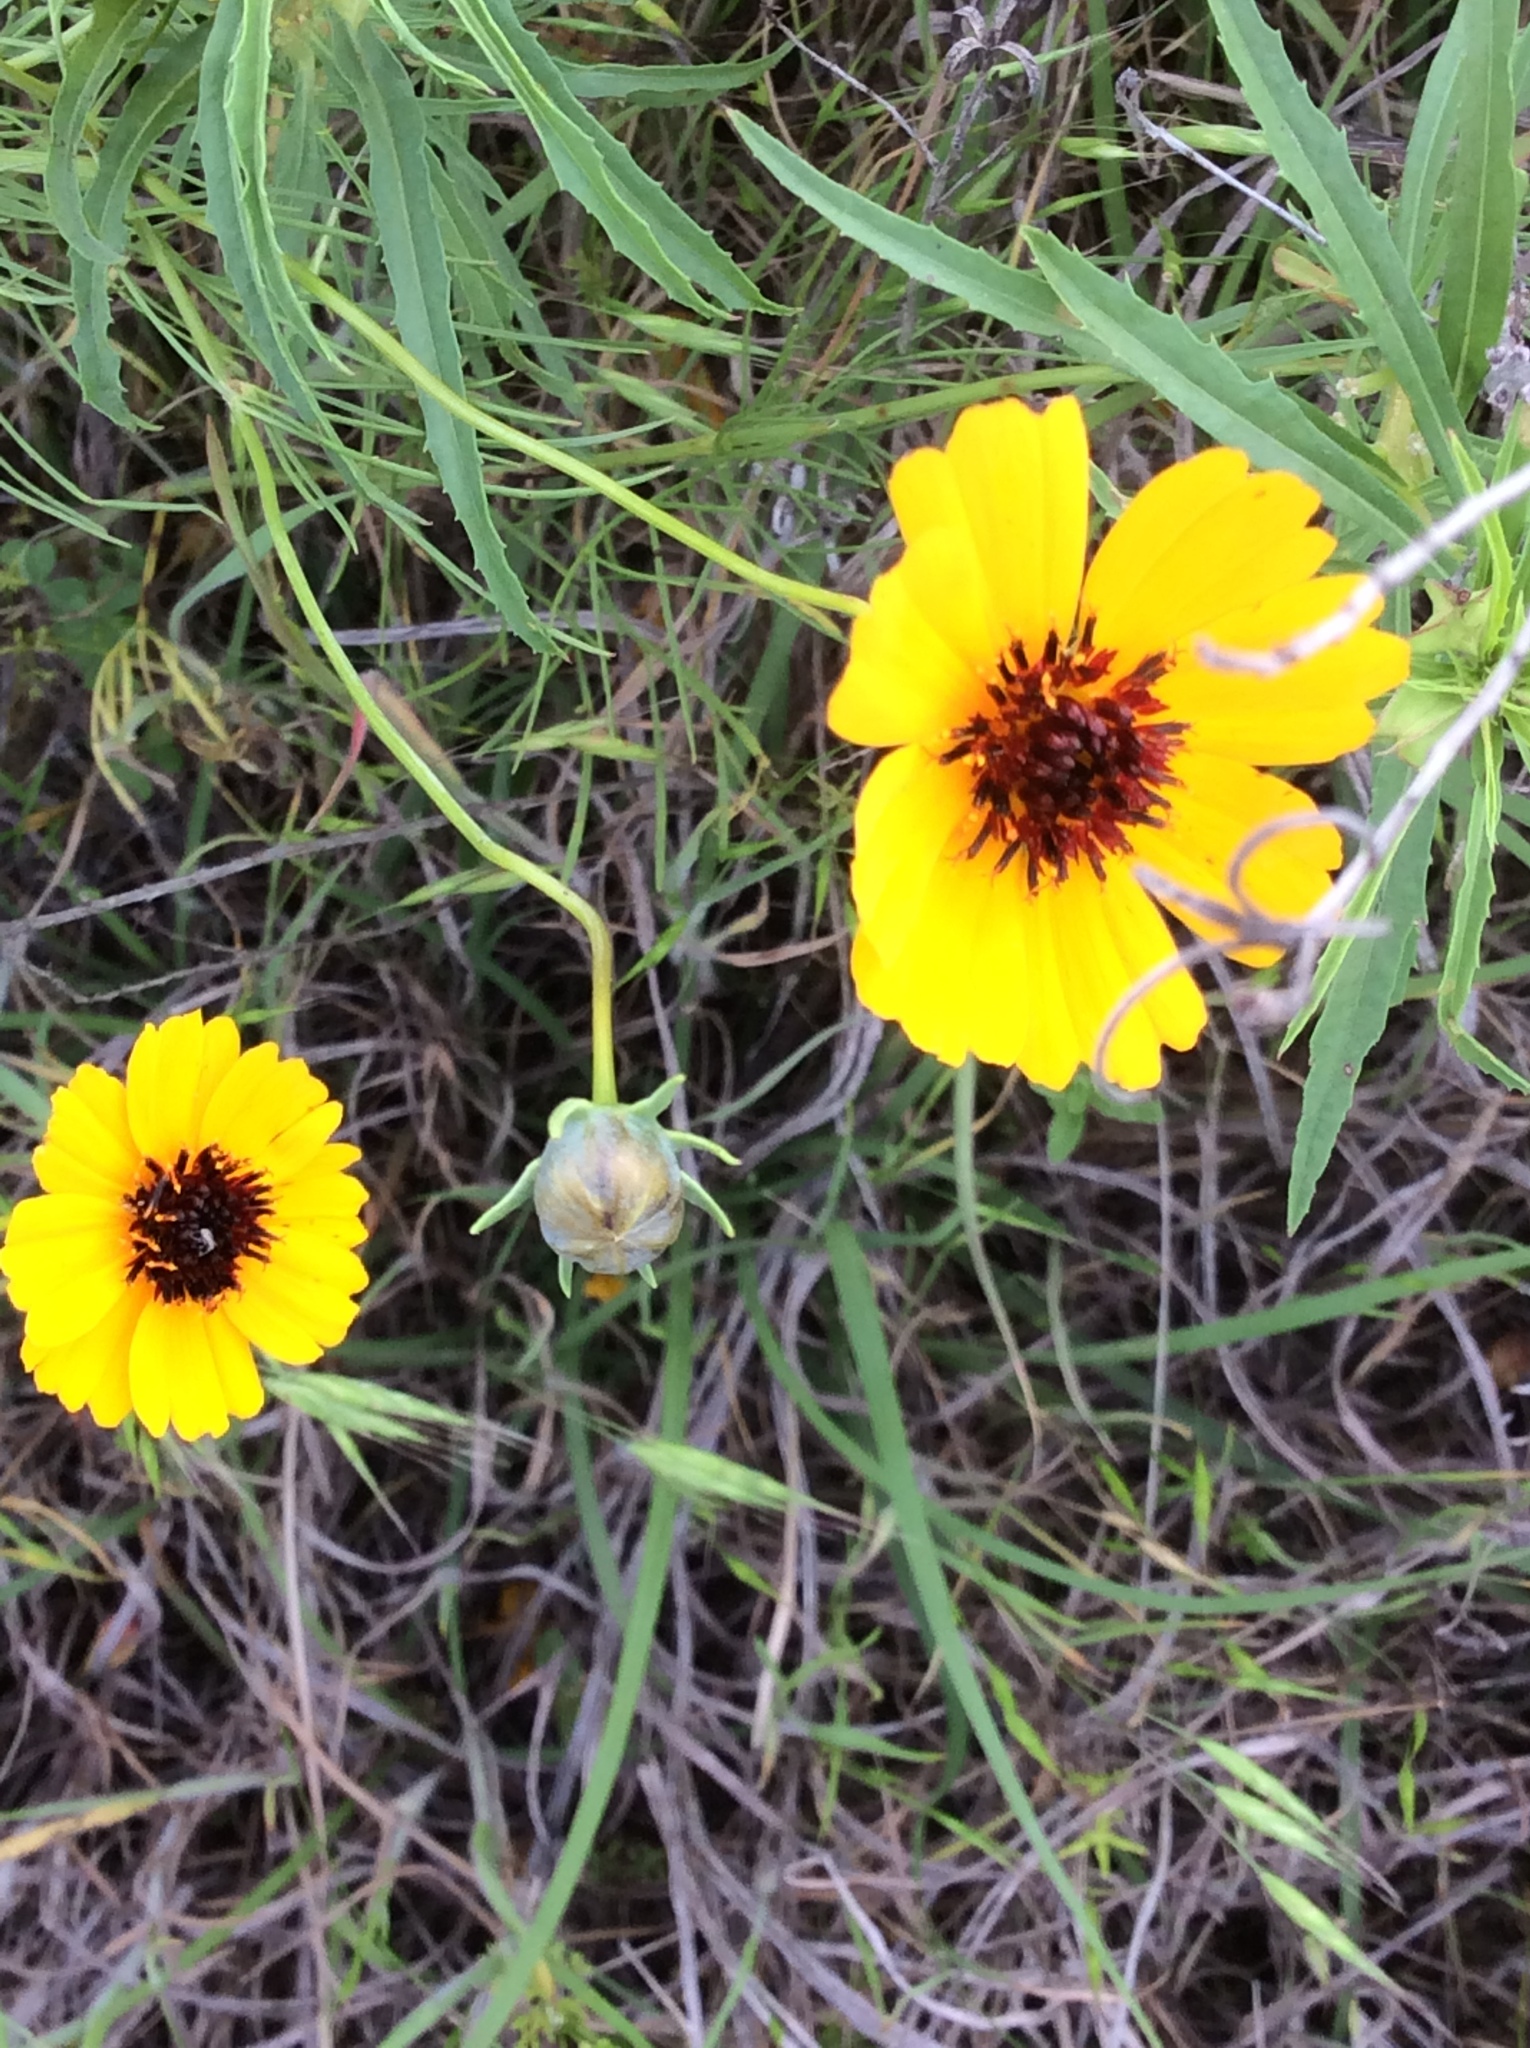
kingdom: Plantae
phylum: Tracheophyta
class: Magnoliopsida
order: Asterales
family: Asteraceae
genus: Thelesperma
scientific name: Thelesperma filifolium
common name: Stiff greenthread
